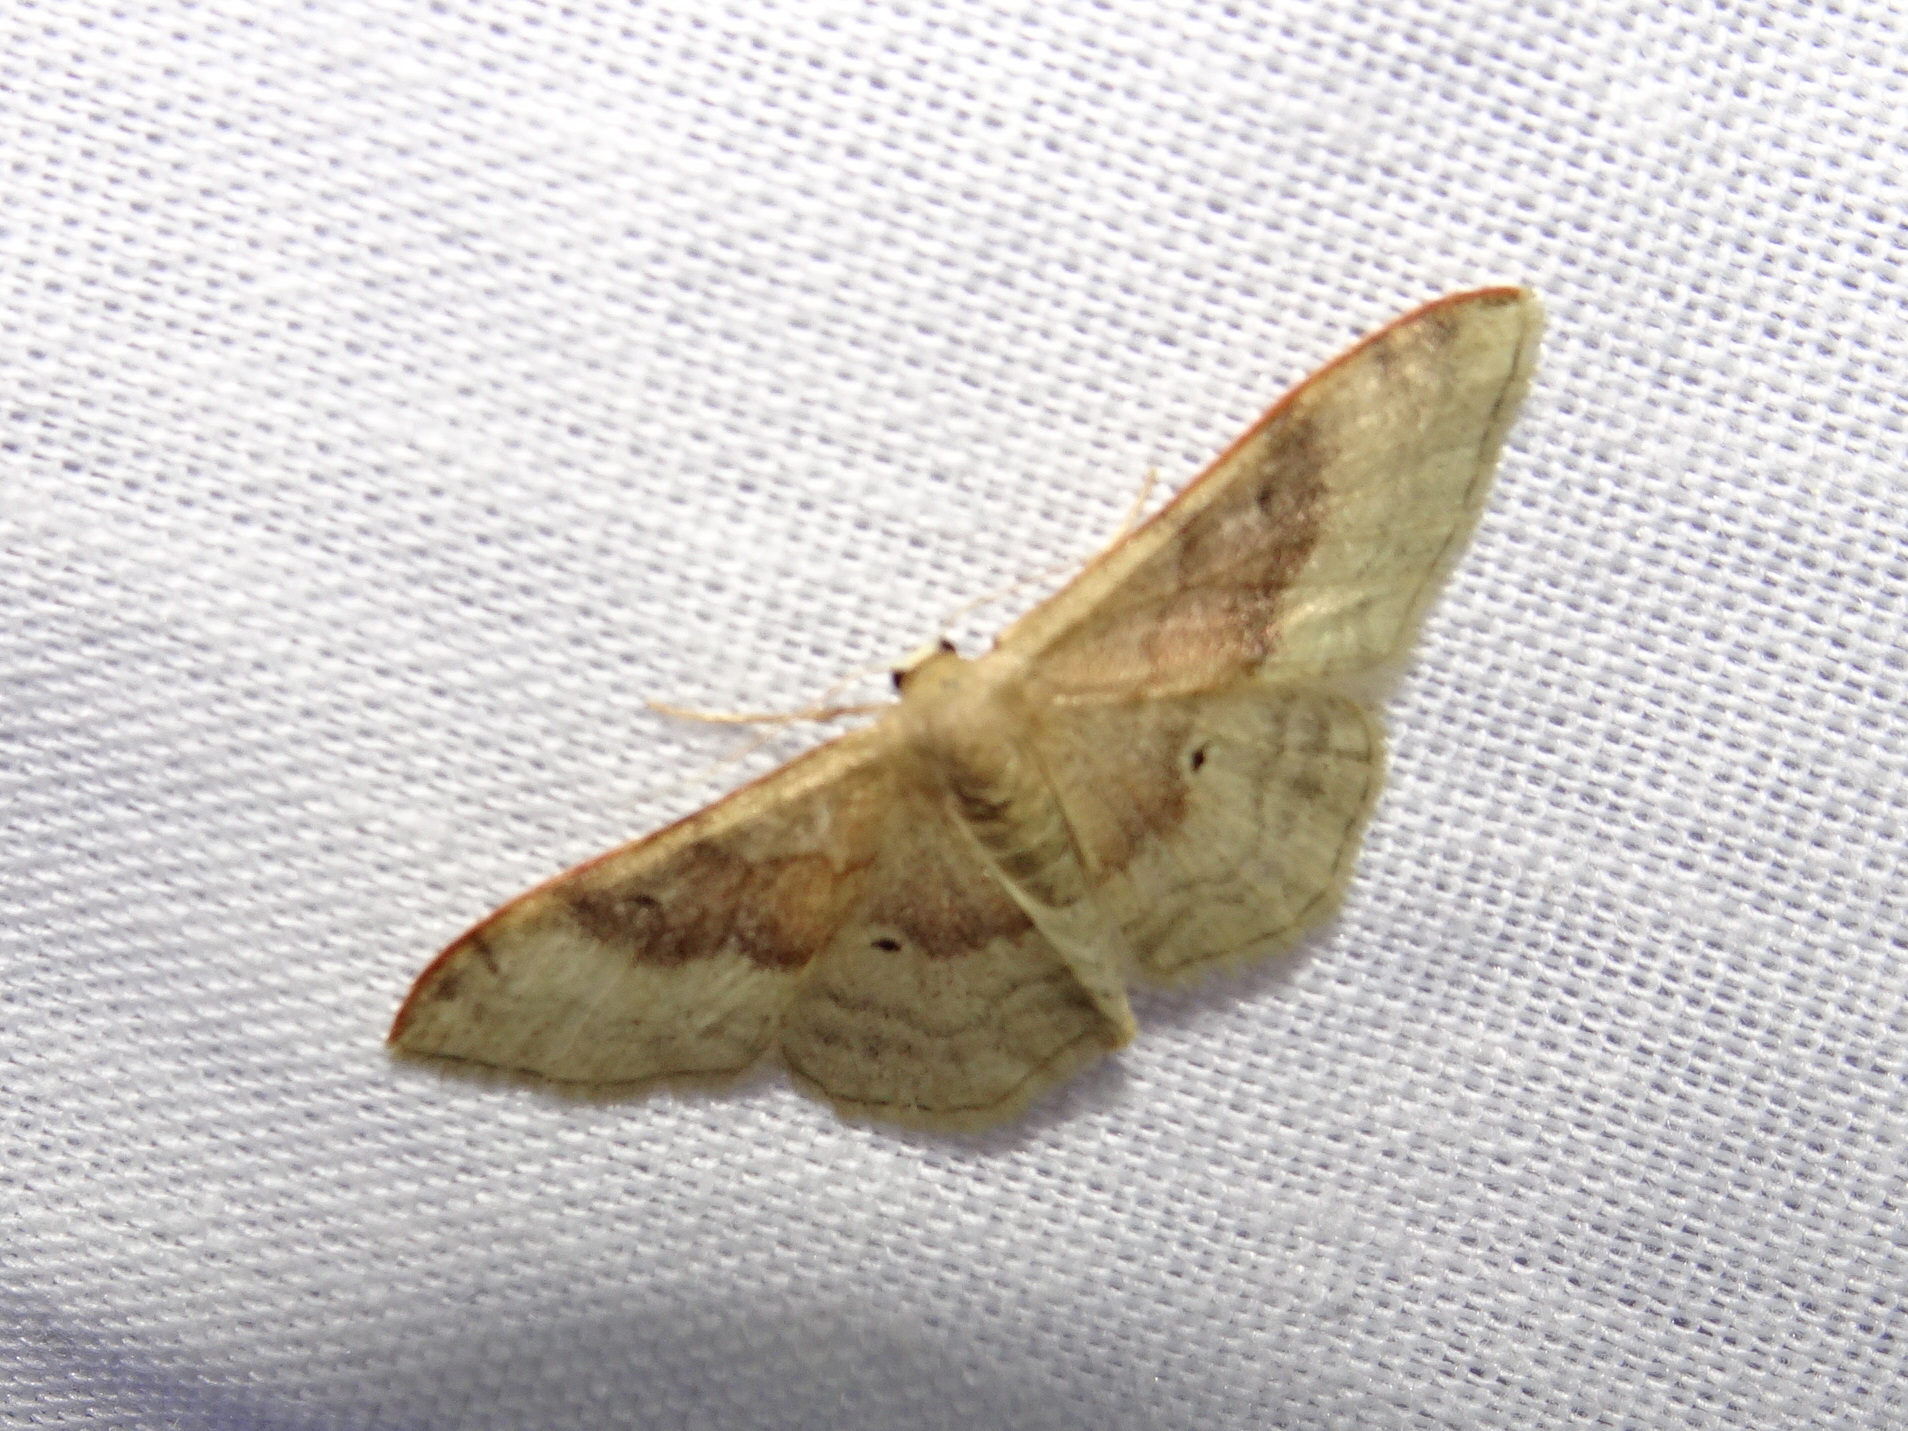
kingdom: Animalia
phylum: Arthropoda
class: Insecta
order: Lepidoptera
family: Geometridae
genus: Idaea
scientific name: Idaea degeneraria
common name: Portland ribbon wave
